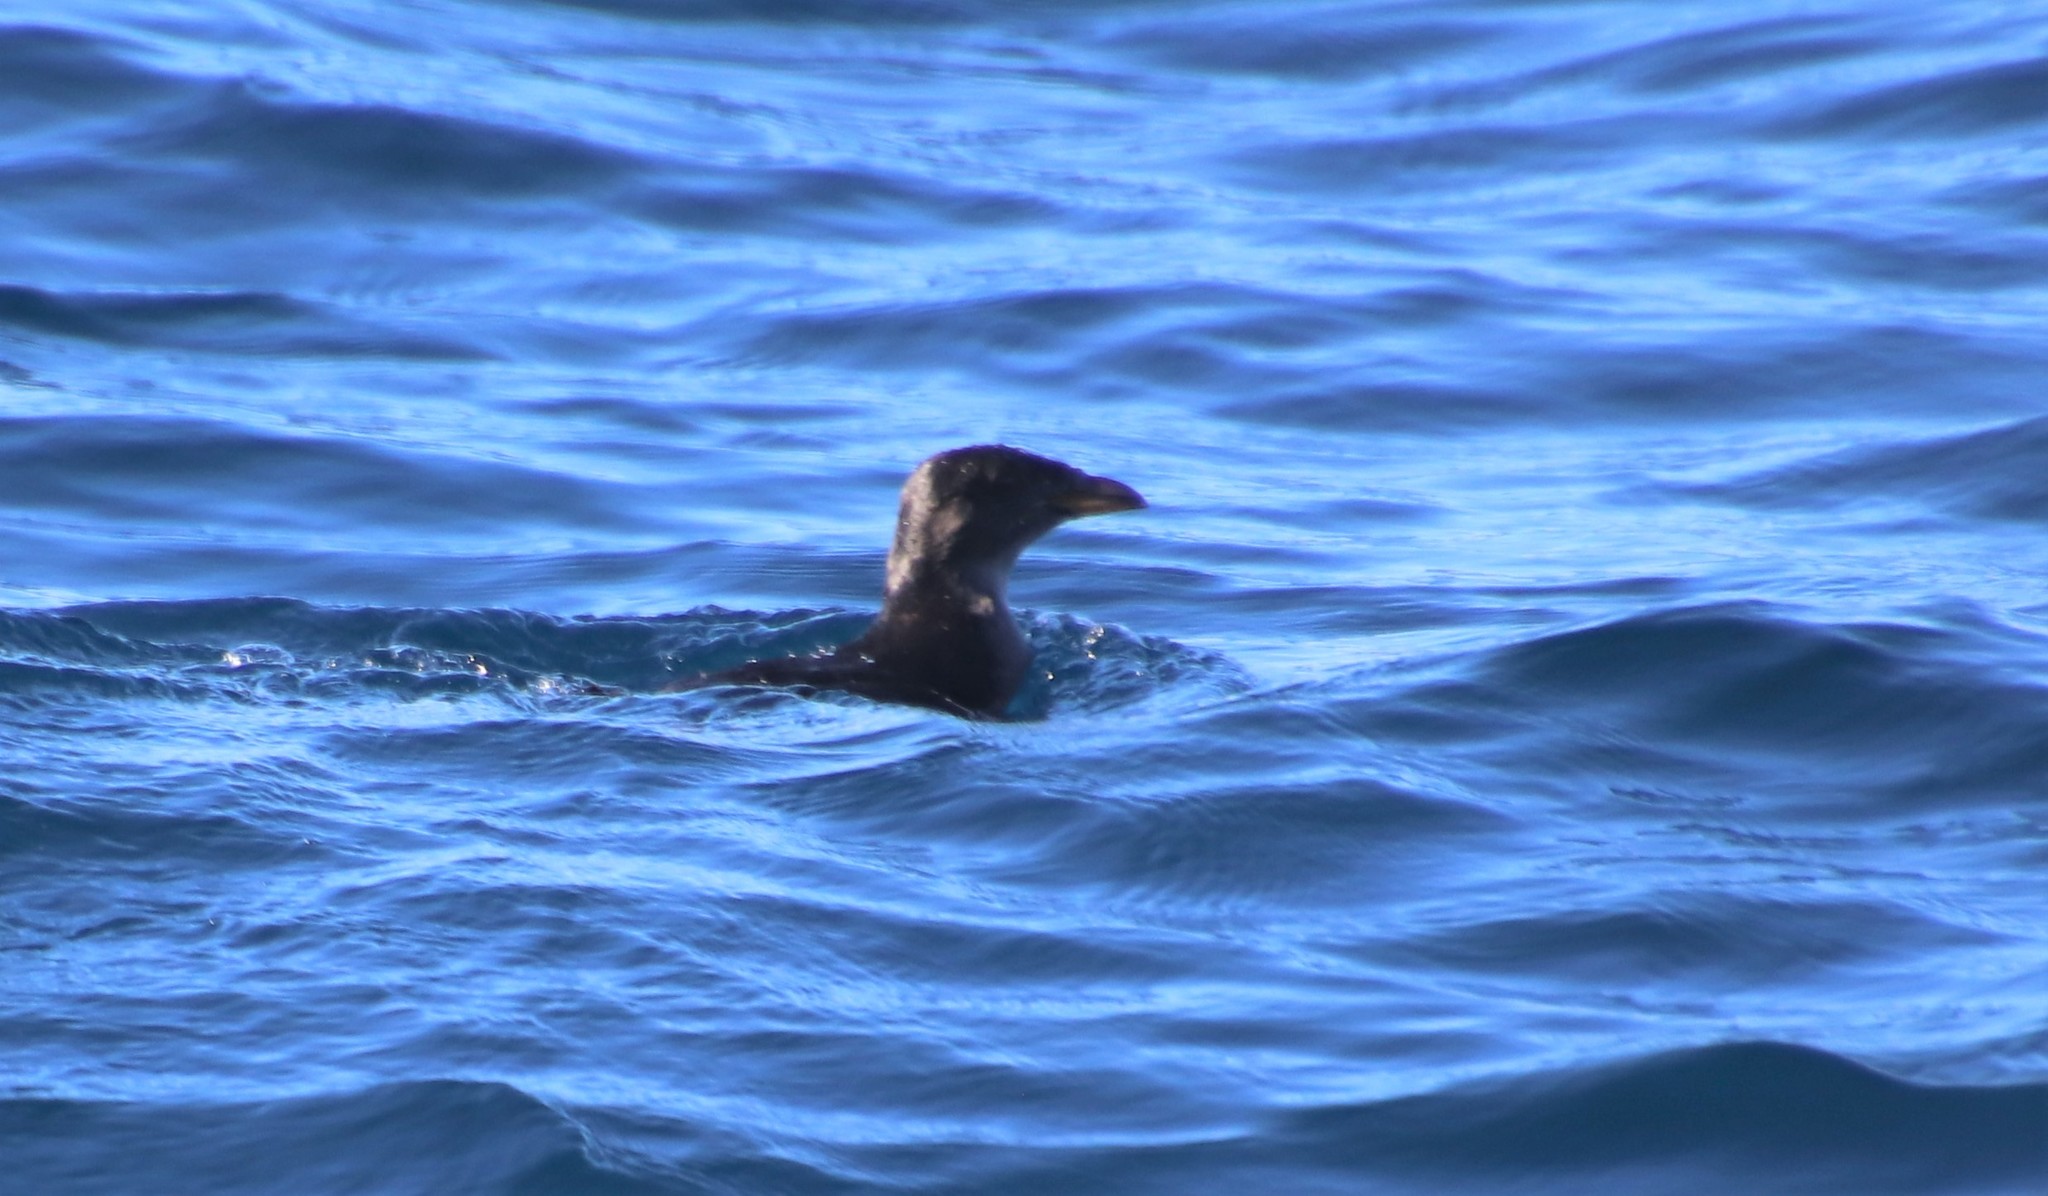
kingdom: Animalia
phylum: Chordata
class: Aves
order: Charadriiformes
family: Alcidae
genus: Cerorhinca
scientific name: Cerorhinca monocerata
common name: Rhinoceros auklet
